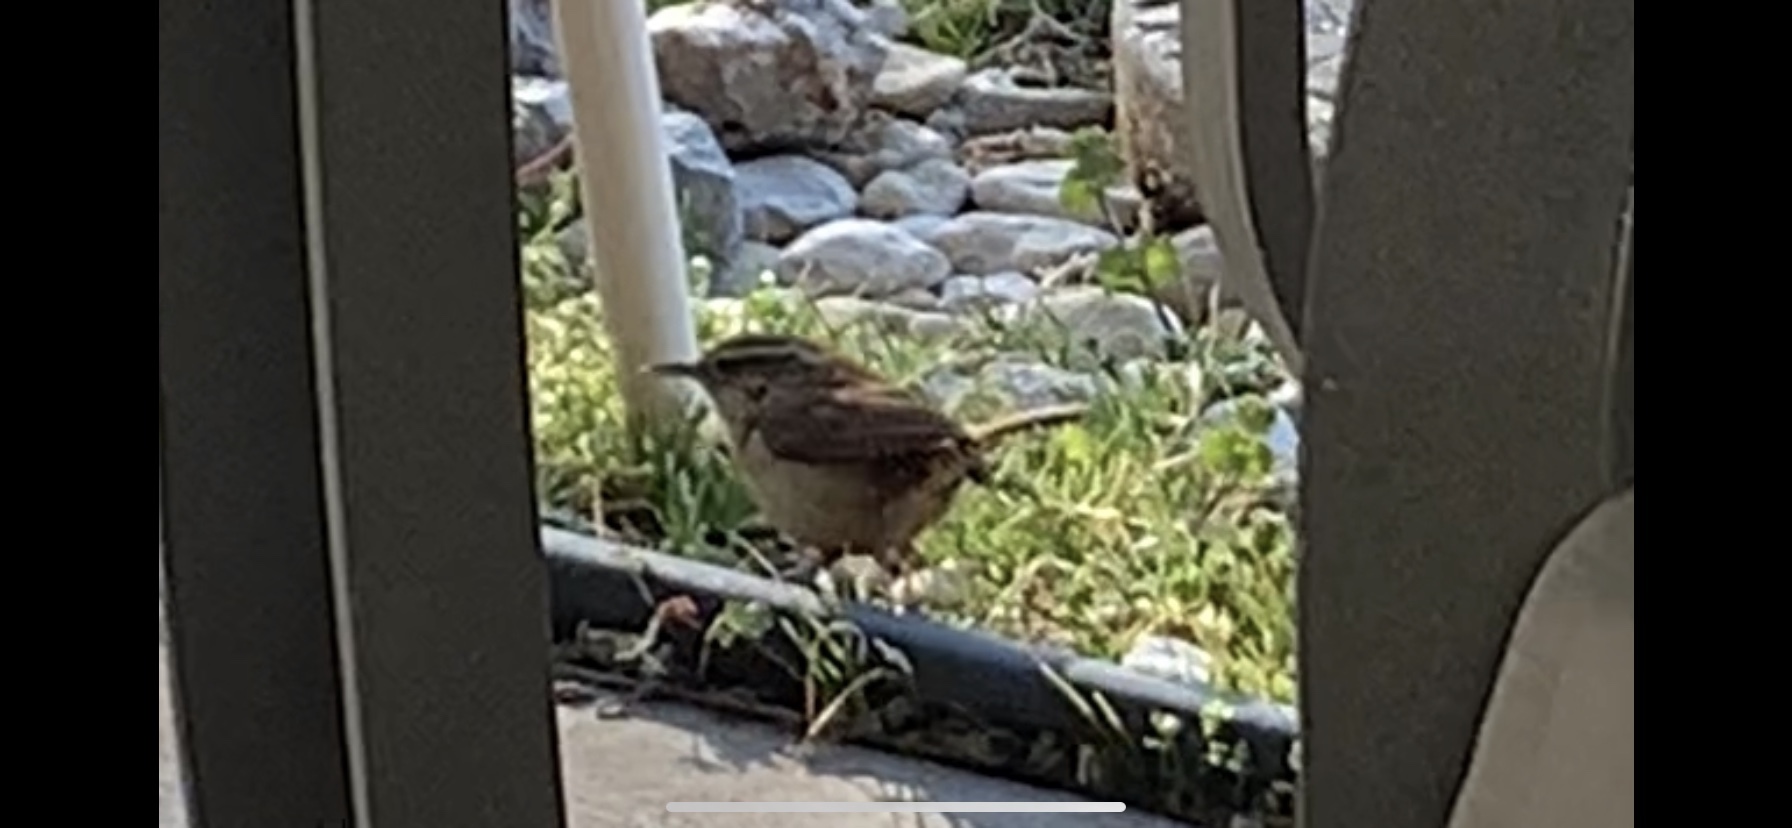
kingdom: Animalia
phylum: Chordata
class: Aves
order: Passeriformes
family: Troglodytidae
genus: Thryothorus
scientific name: Thryothorus ludovicianus
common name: Carolina wren
